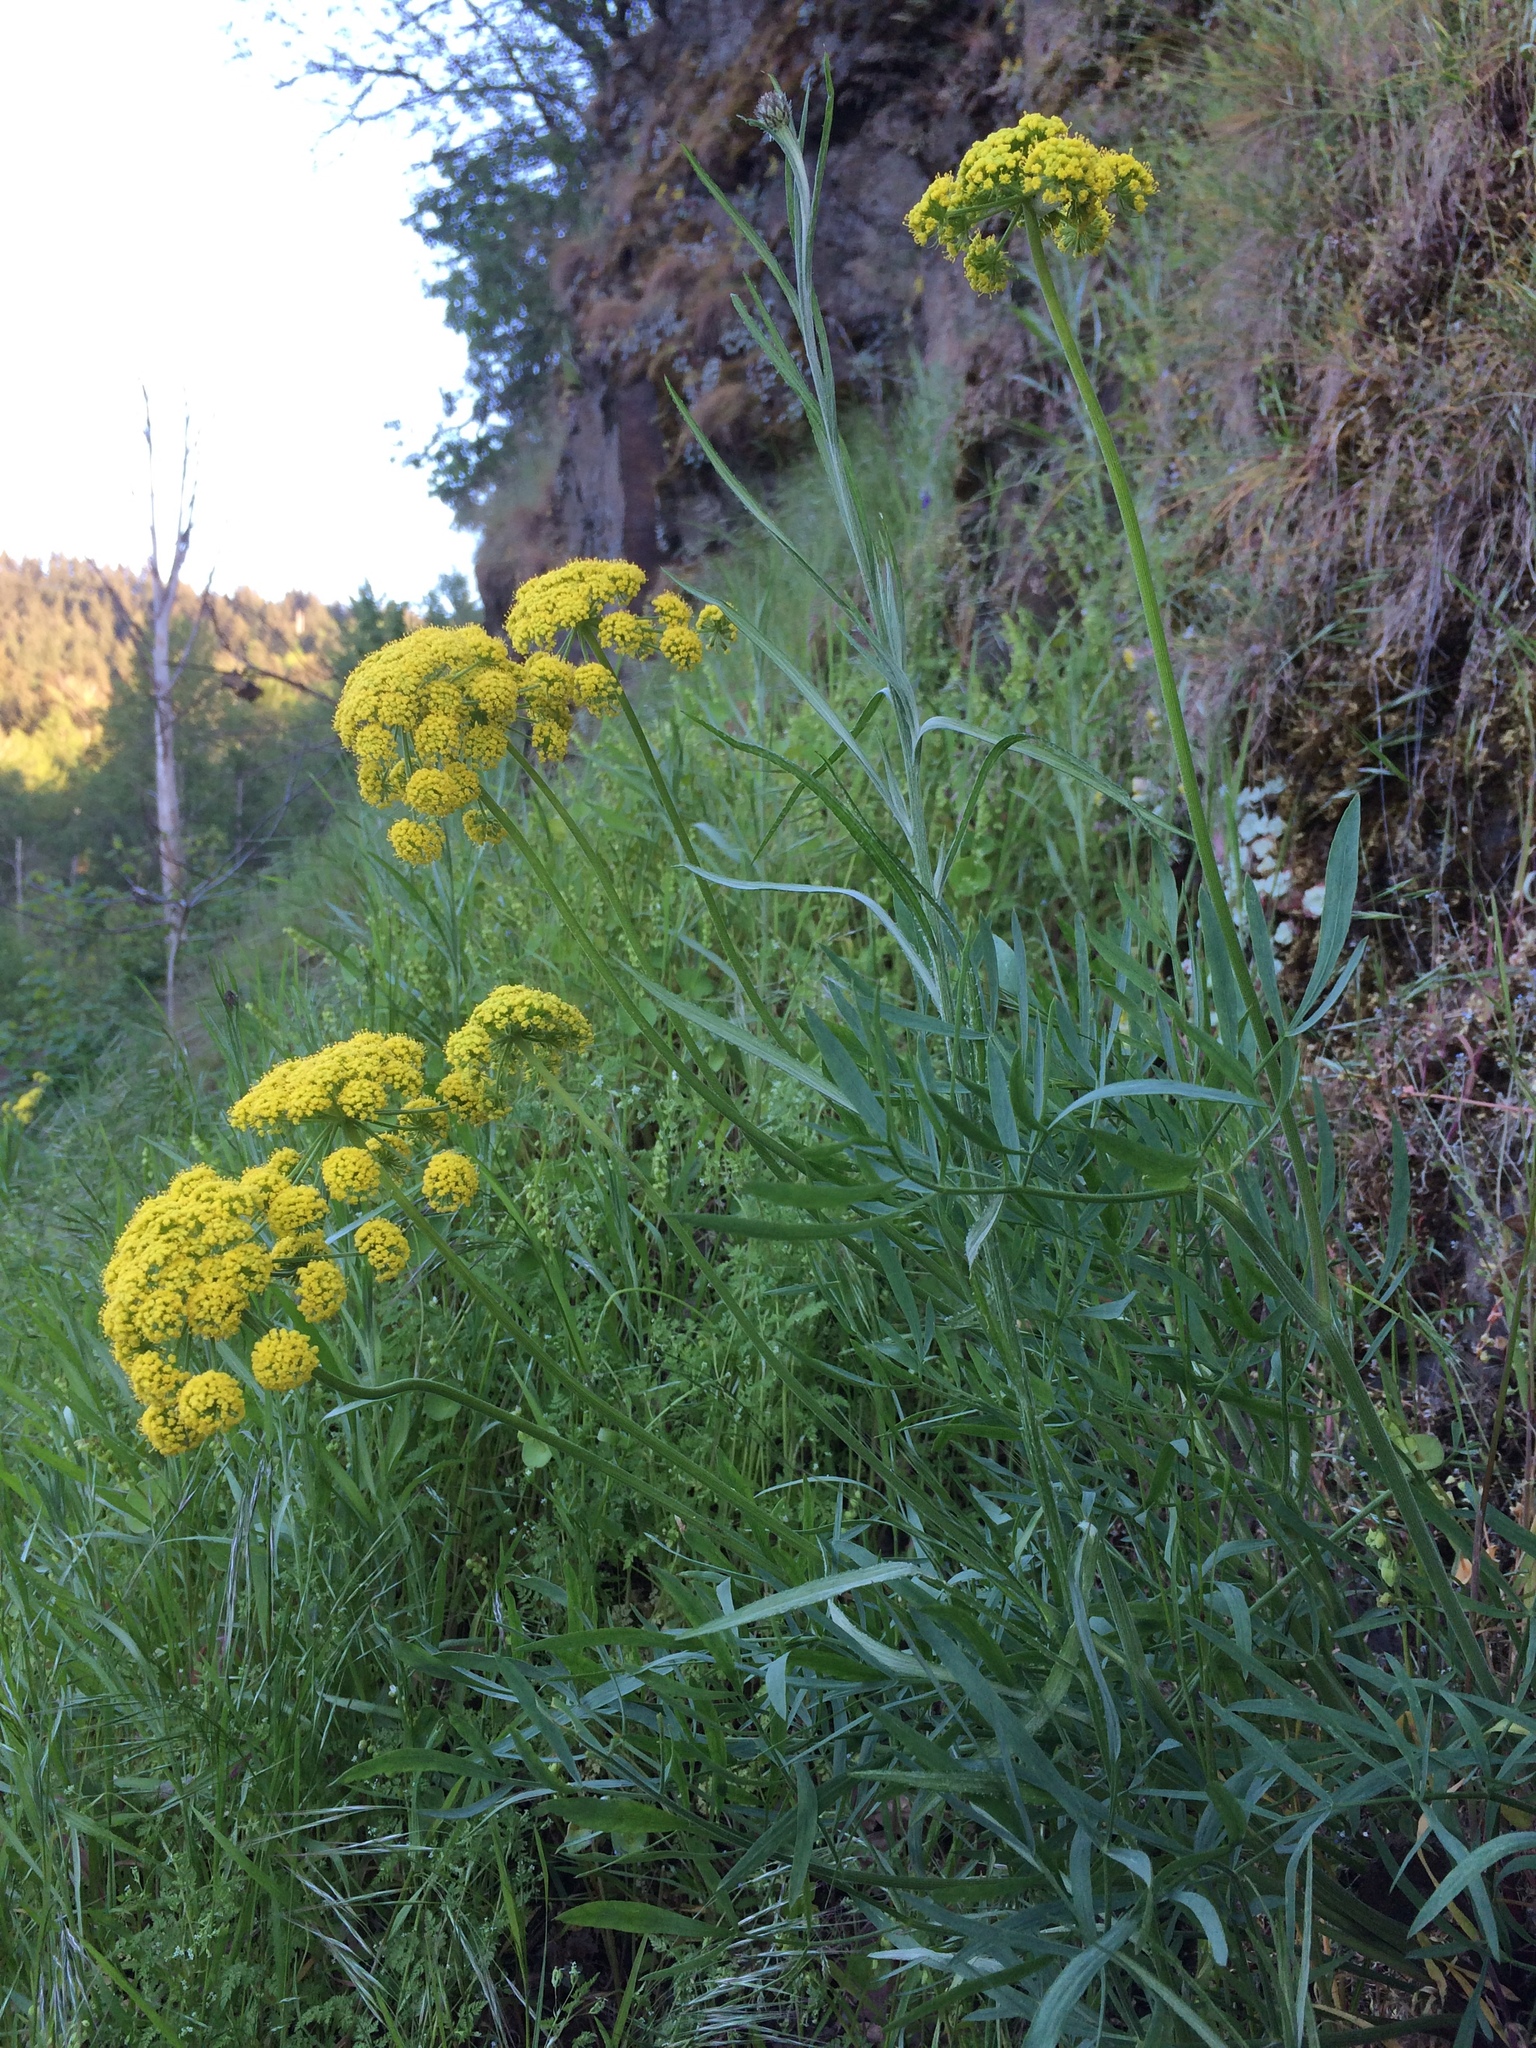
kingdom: Plantae
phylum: Tracheophyta
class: Magnoliopsida
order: Apiales
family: Apiaceae
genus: Lomatium
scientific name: Lomatium triternatum
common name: Ternate lomatium
